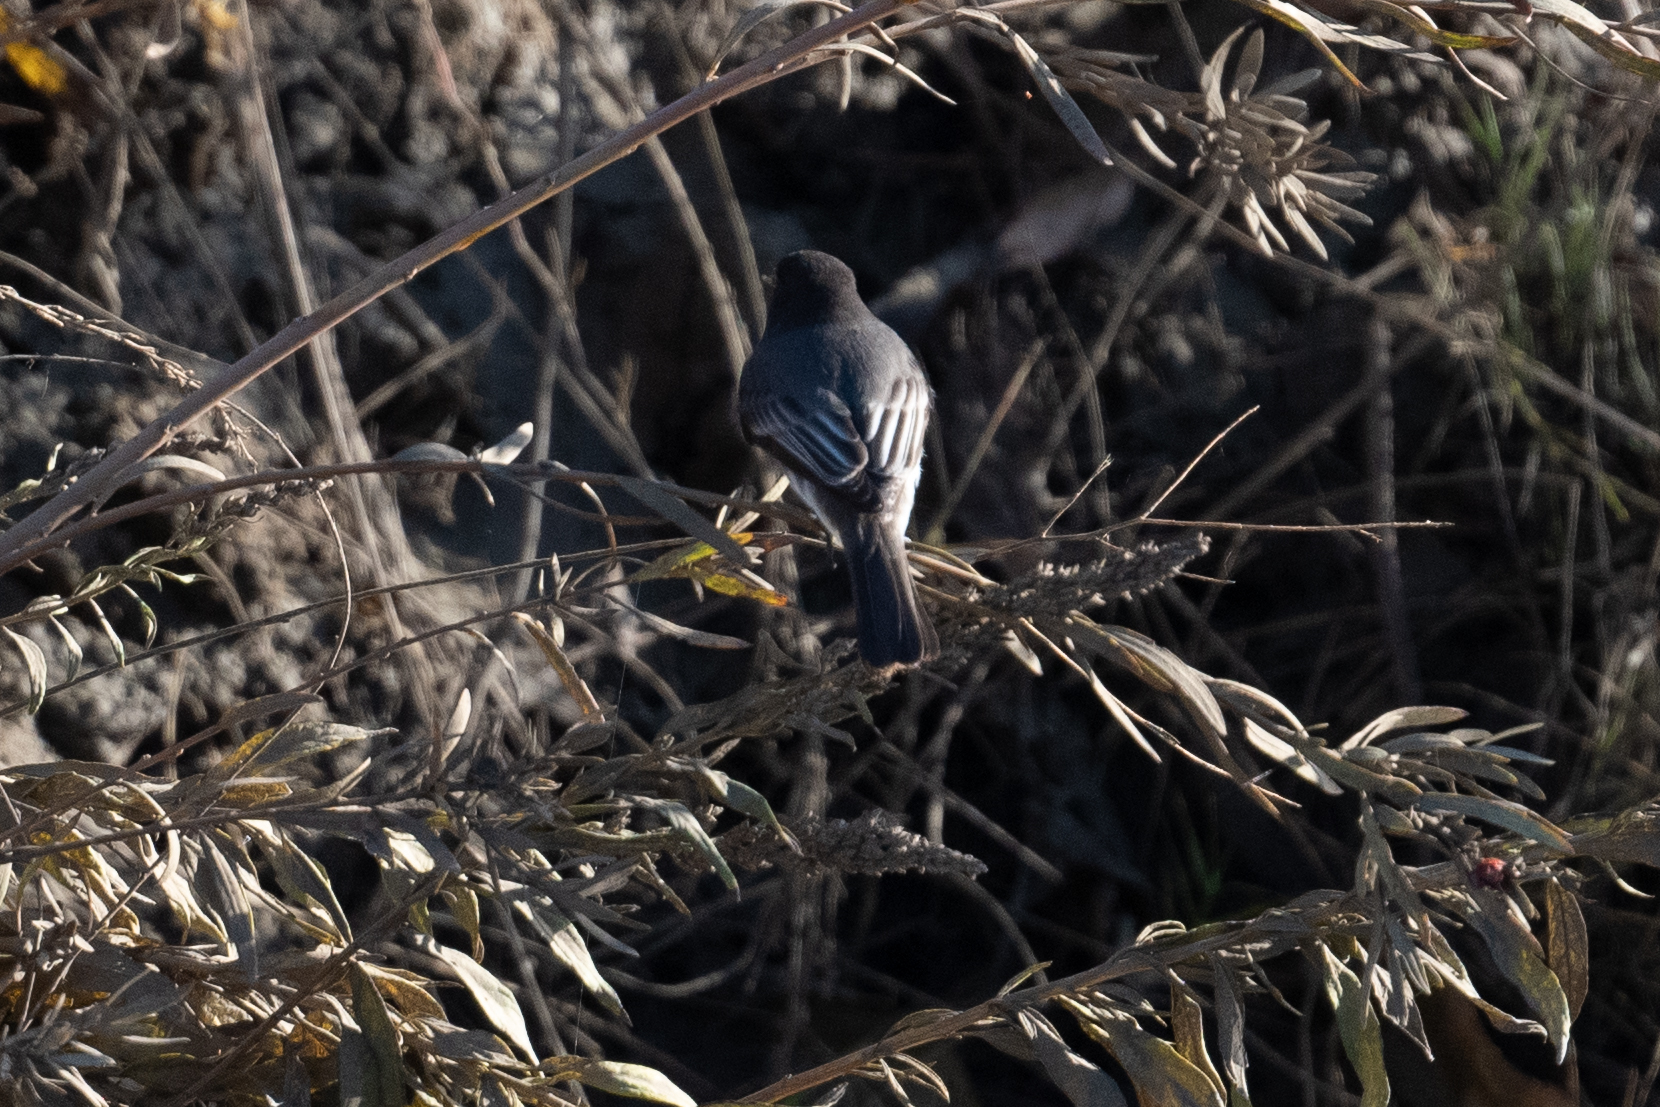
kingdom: Animalia
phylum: Chordata
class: Aves
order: Passeriformes
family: Tyrannidae
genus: Sayornis
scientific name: Sayornis nigricans
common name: Black phoebe
